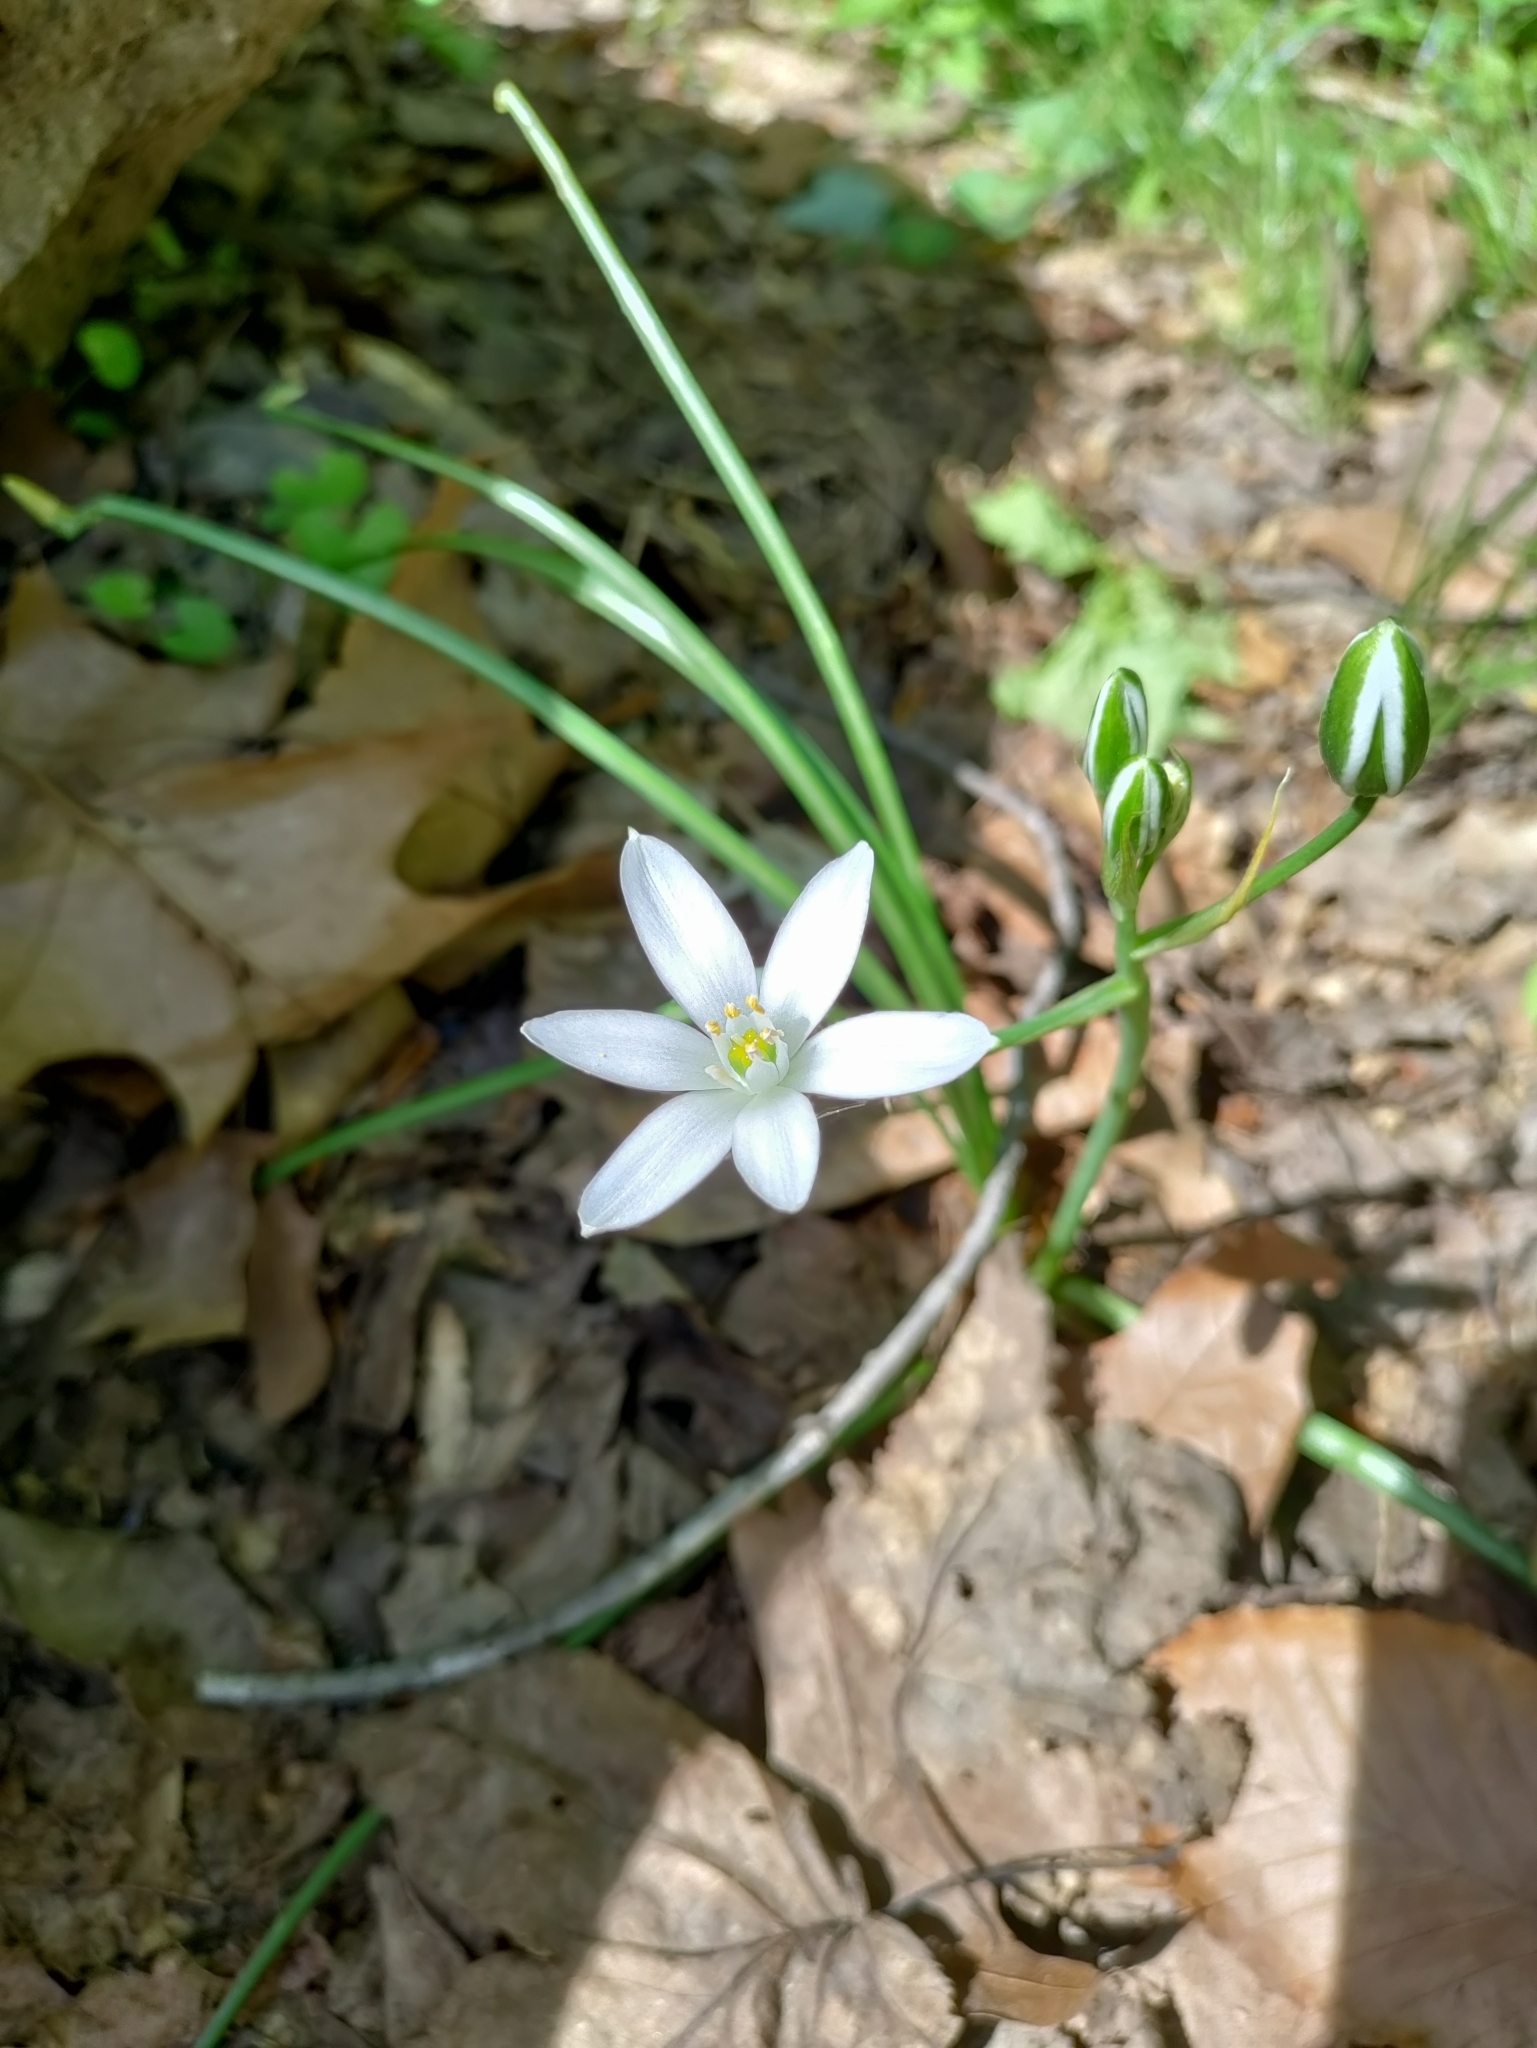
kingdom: Plantae
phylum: Tracheophyta
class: Liliopsida
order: Asparagales
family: Asparagaceae
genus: Ornithogalum
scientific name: Ornithogalum umbellatum
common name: Garden star-of-bethlehem
